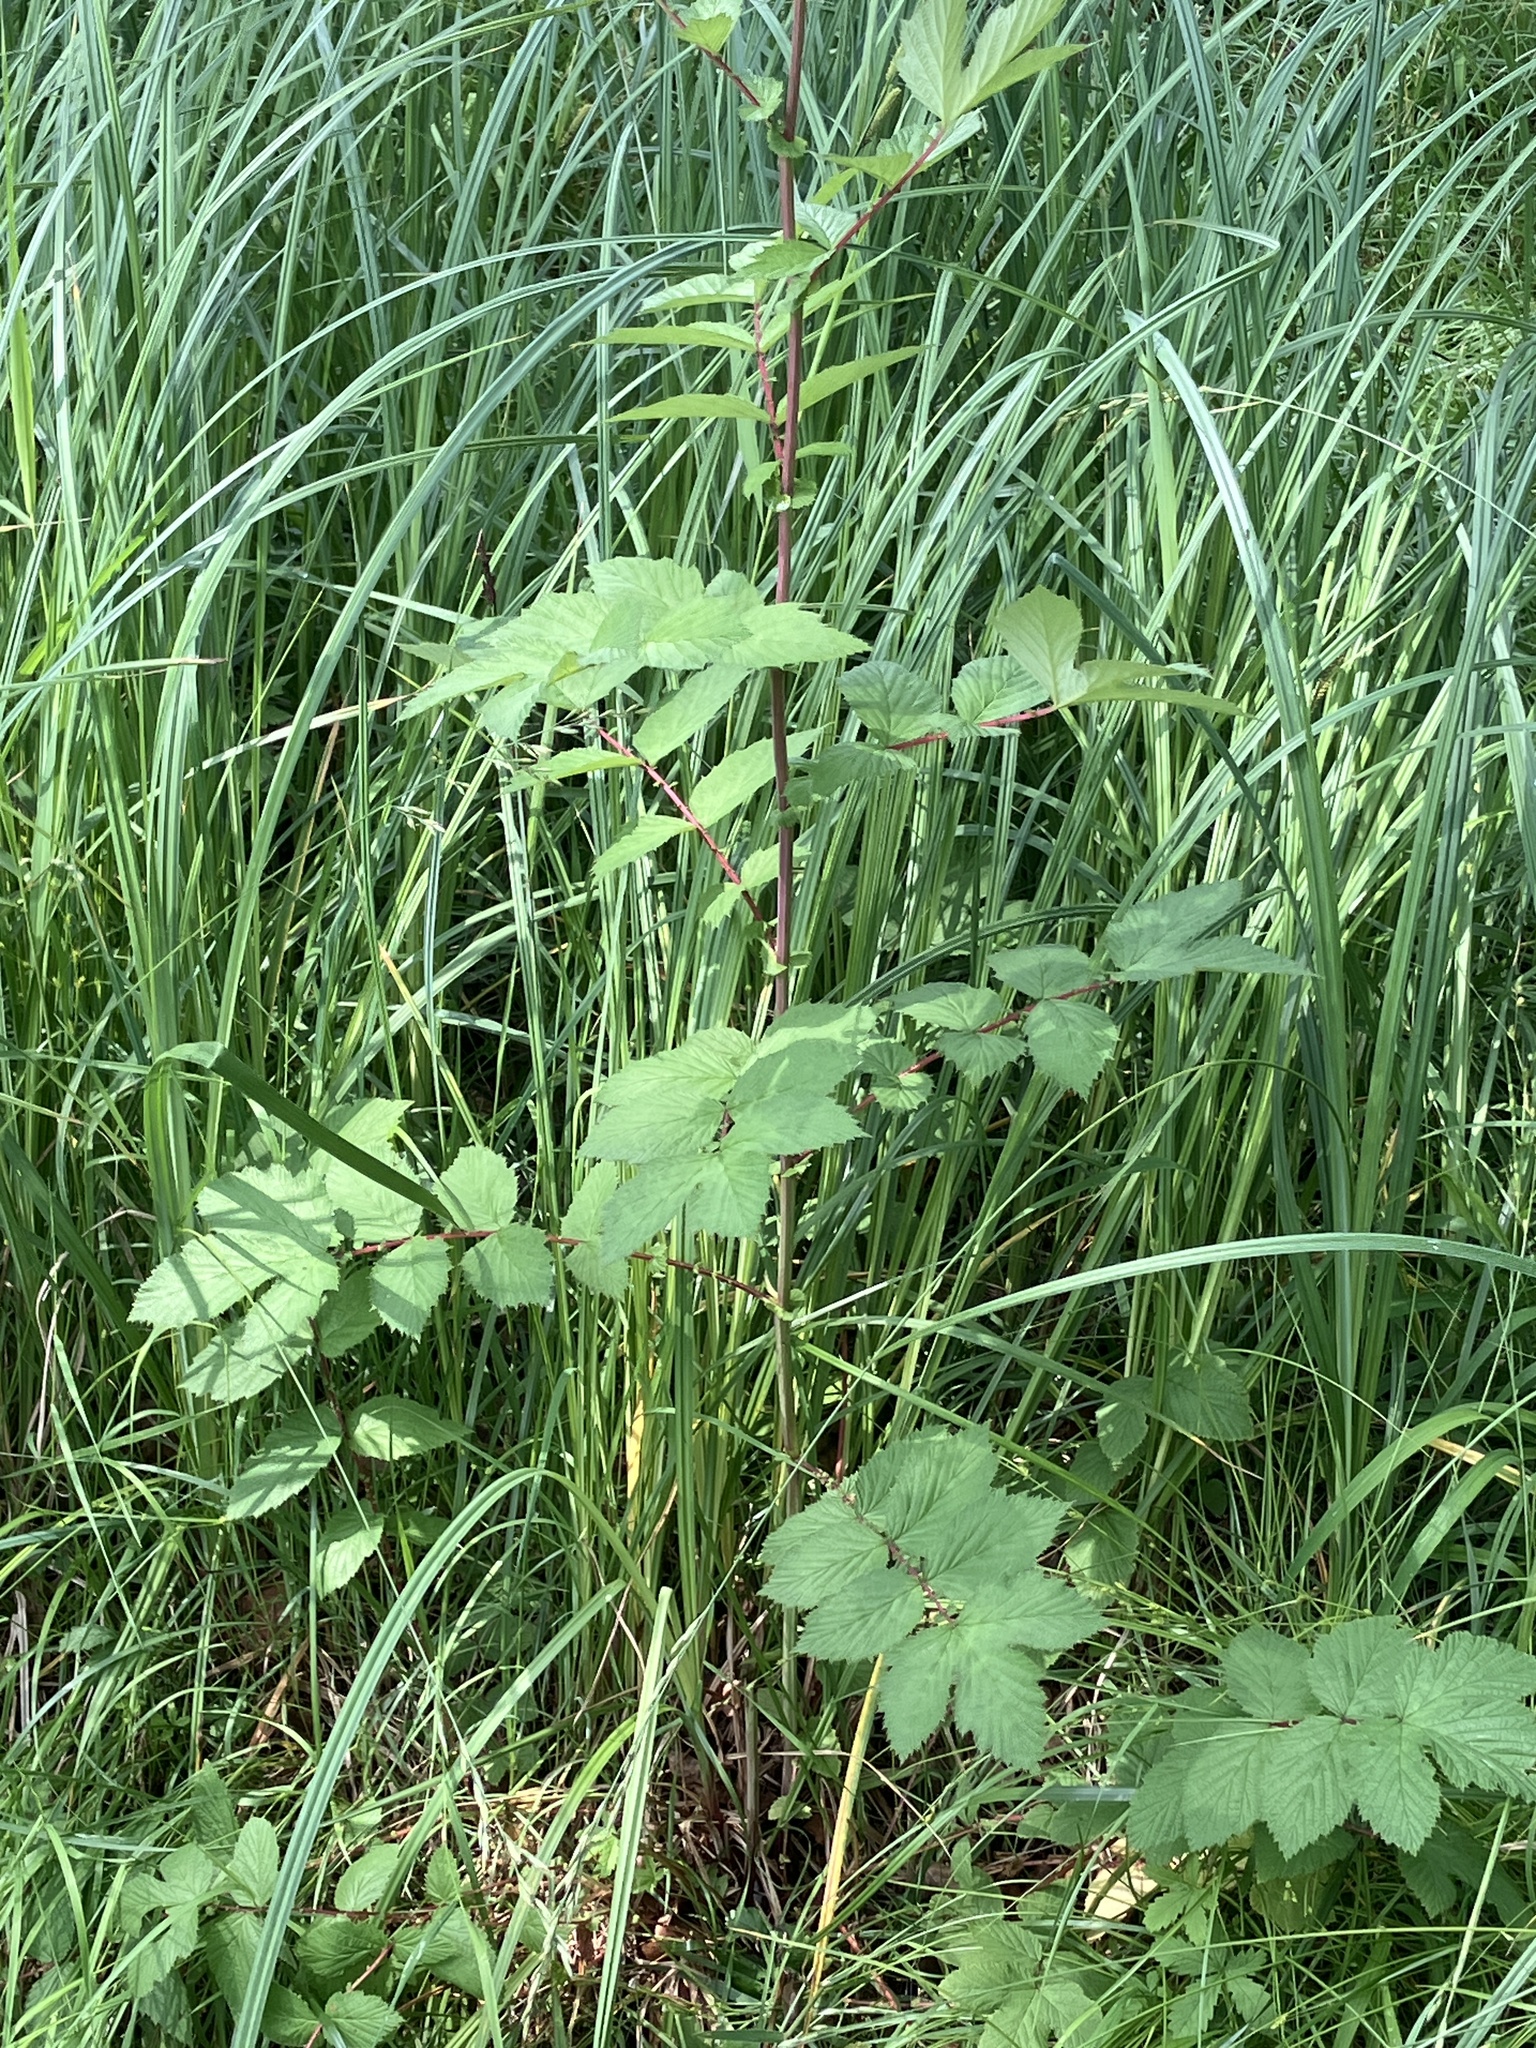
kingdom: Plantae
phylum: Tracheophyta
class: Magnoliopsida
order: Rosales
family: Rosaceae
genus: Filipendula
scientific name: Filipendula ulmaria
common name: Meadowsweet
